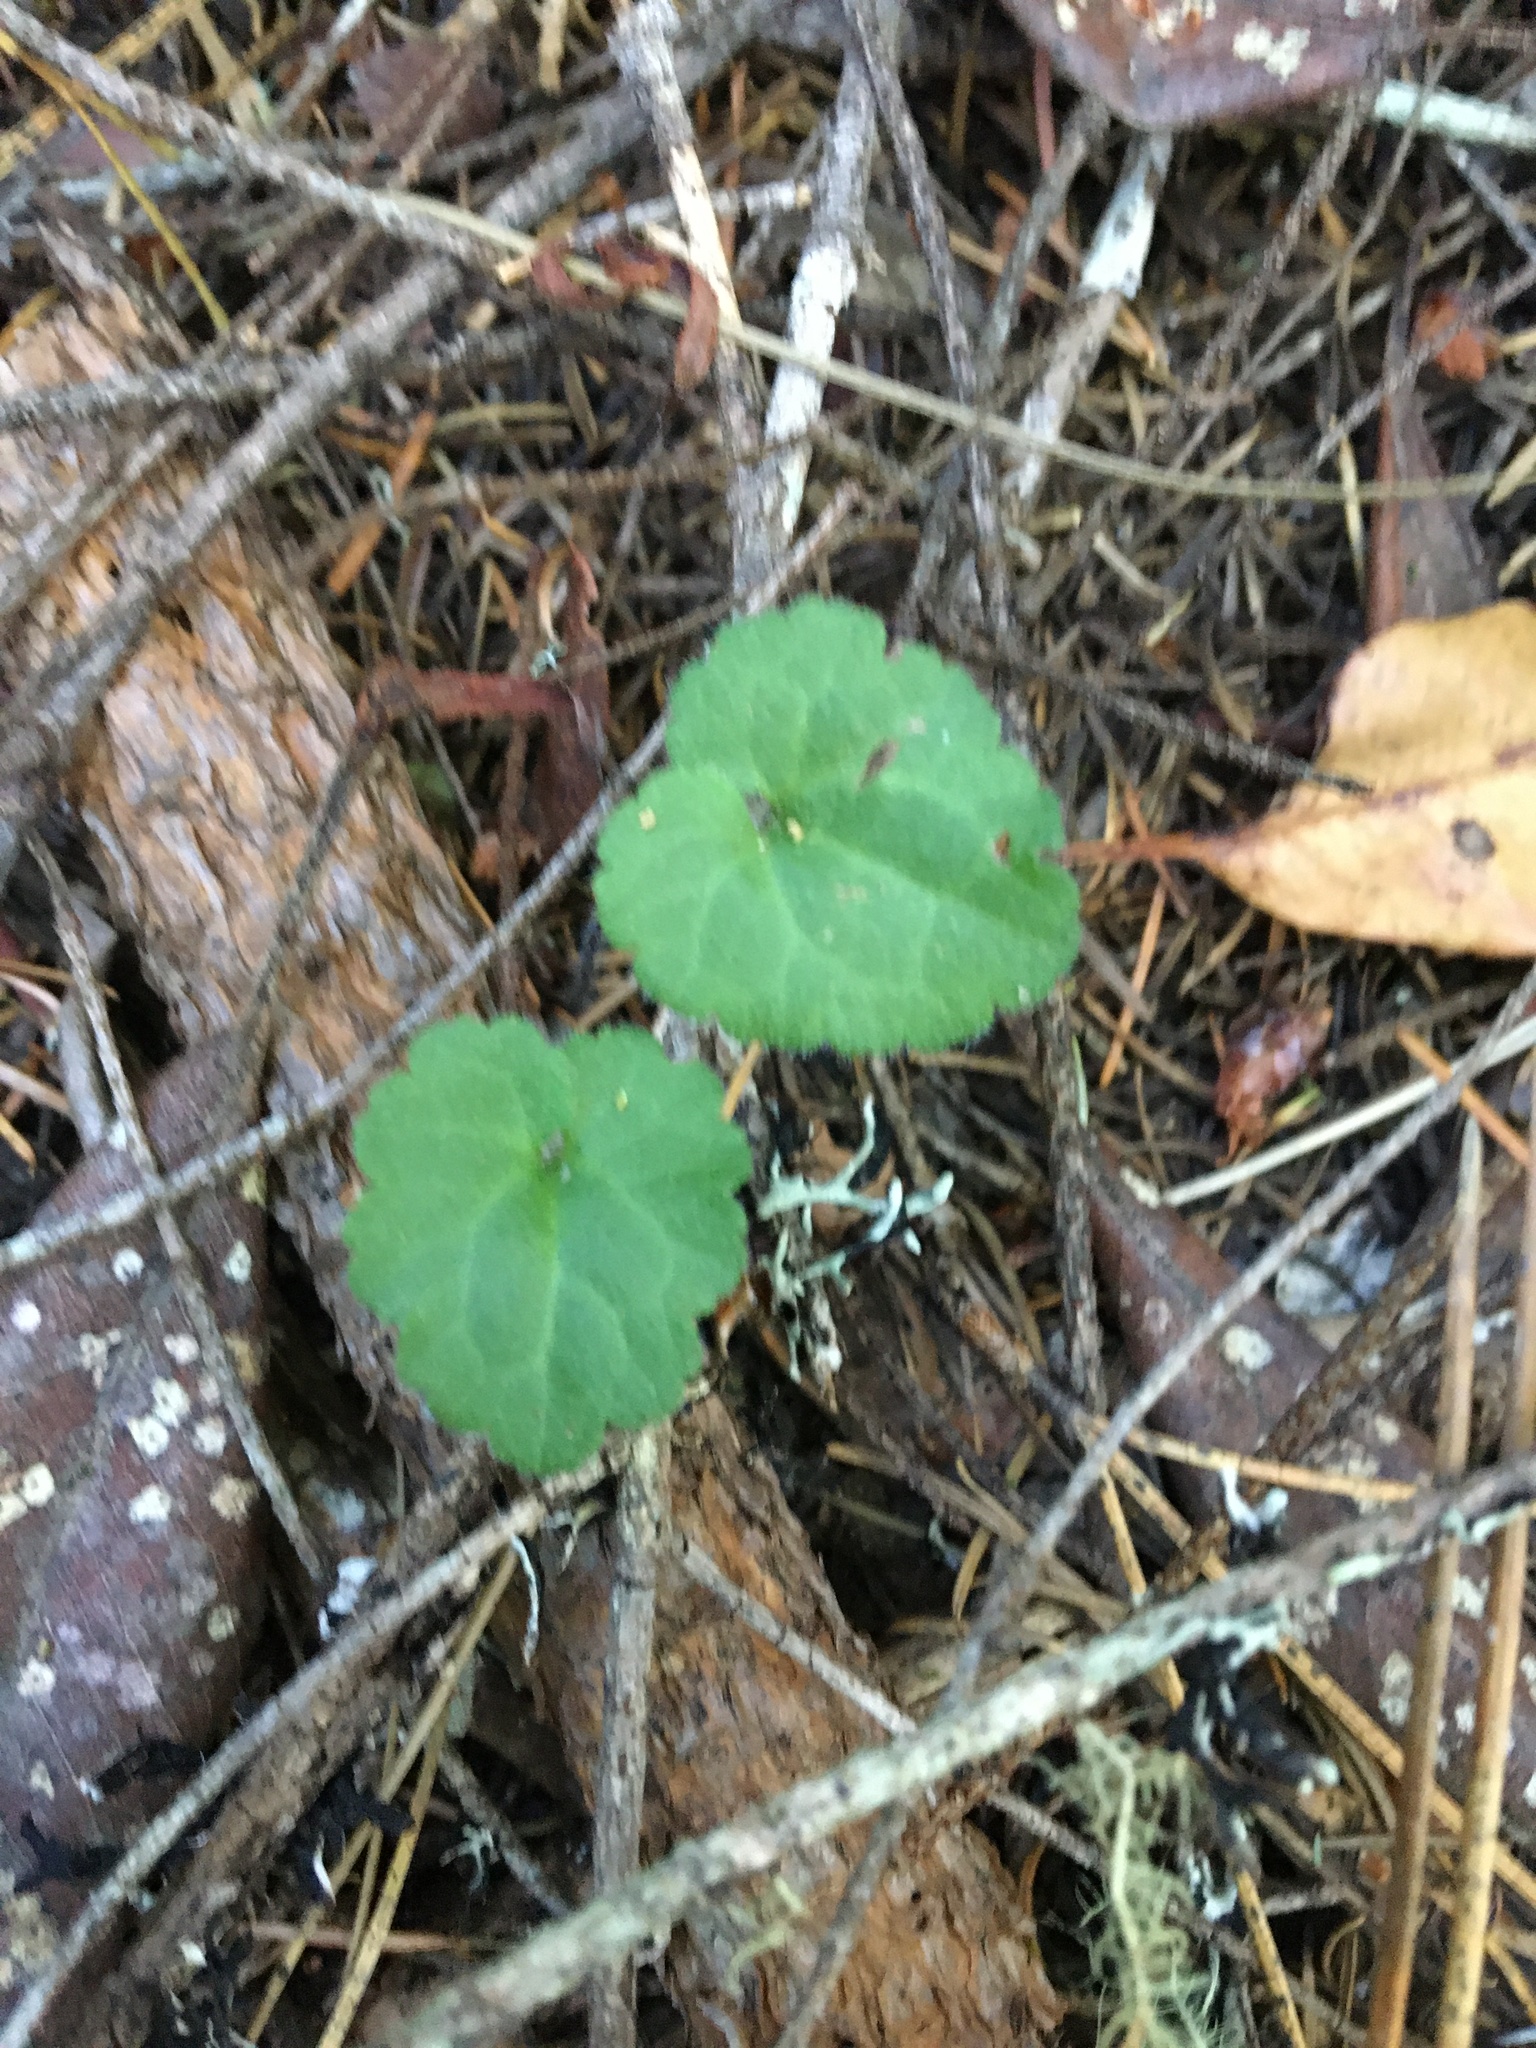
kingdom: Plantae
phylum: Tracheophyta
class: Magnoliopsida
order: Lamiales
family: Plantaginaceae
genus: Synthyris
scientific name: Synthyris reniformis
